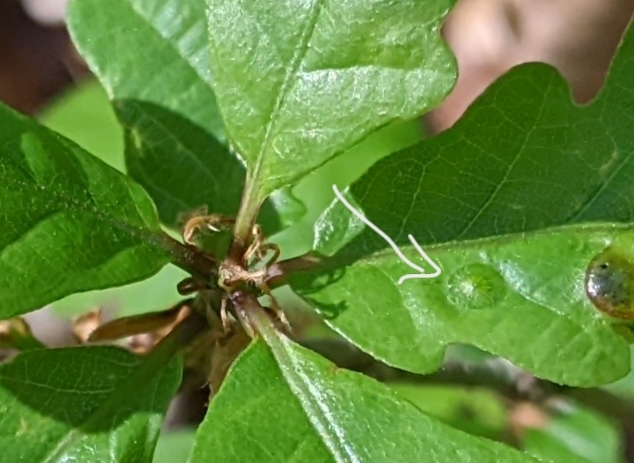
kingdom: Animalia
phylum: Arthropoda
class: Insecta
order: Hymenoptera
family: Cynipidae
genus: Neuroterus
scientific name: Neuroterus numismalis
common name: Silk-button spangle gall
